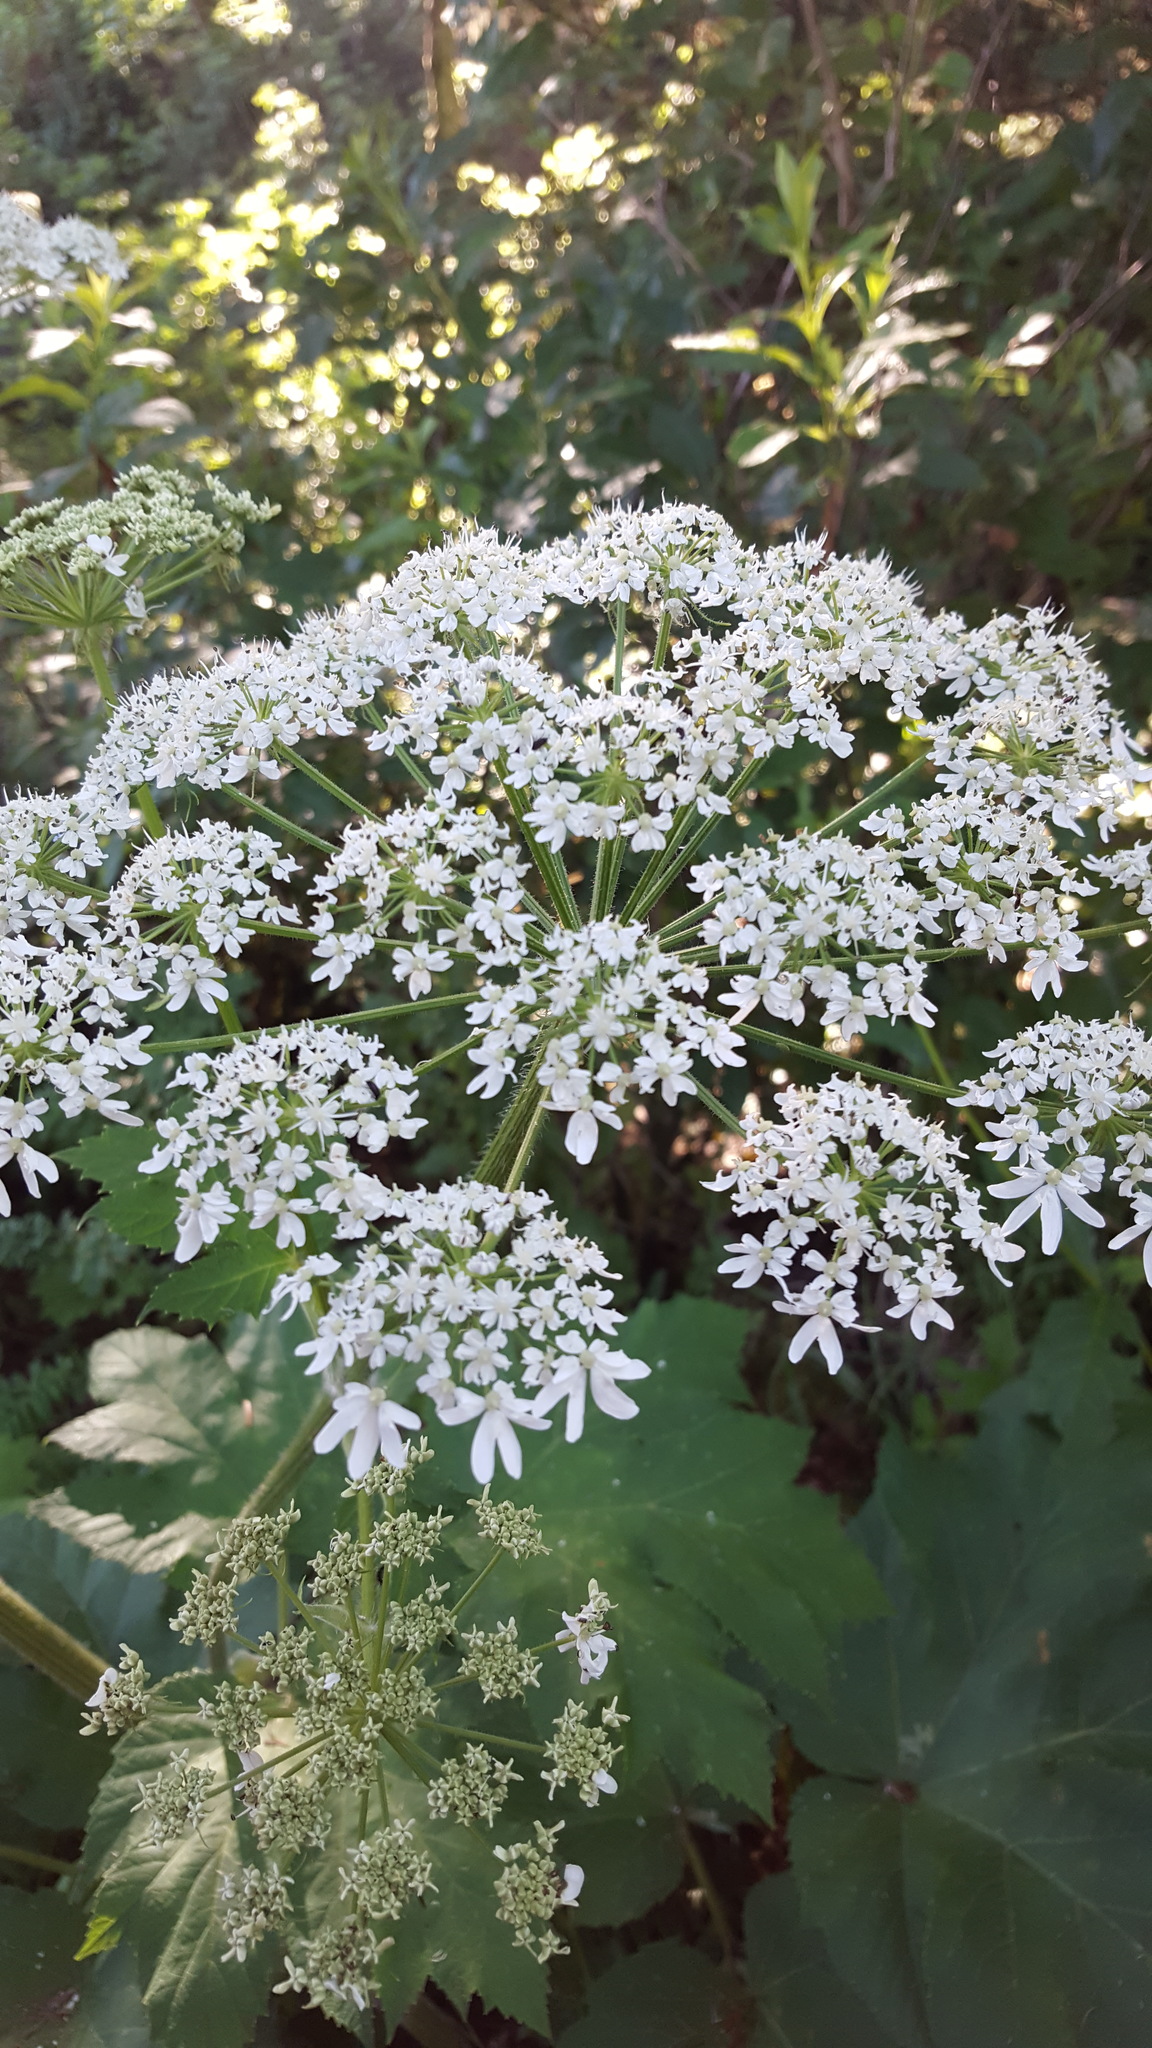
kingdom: Plantae
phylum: Tracheophyta
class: Magnoliopsida
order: Apiales
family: Apiaceae
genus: Heracleum
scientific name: Heracleum maximum
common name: American cow parsnip
